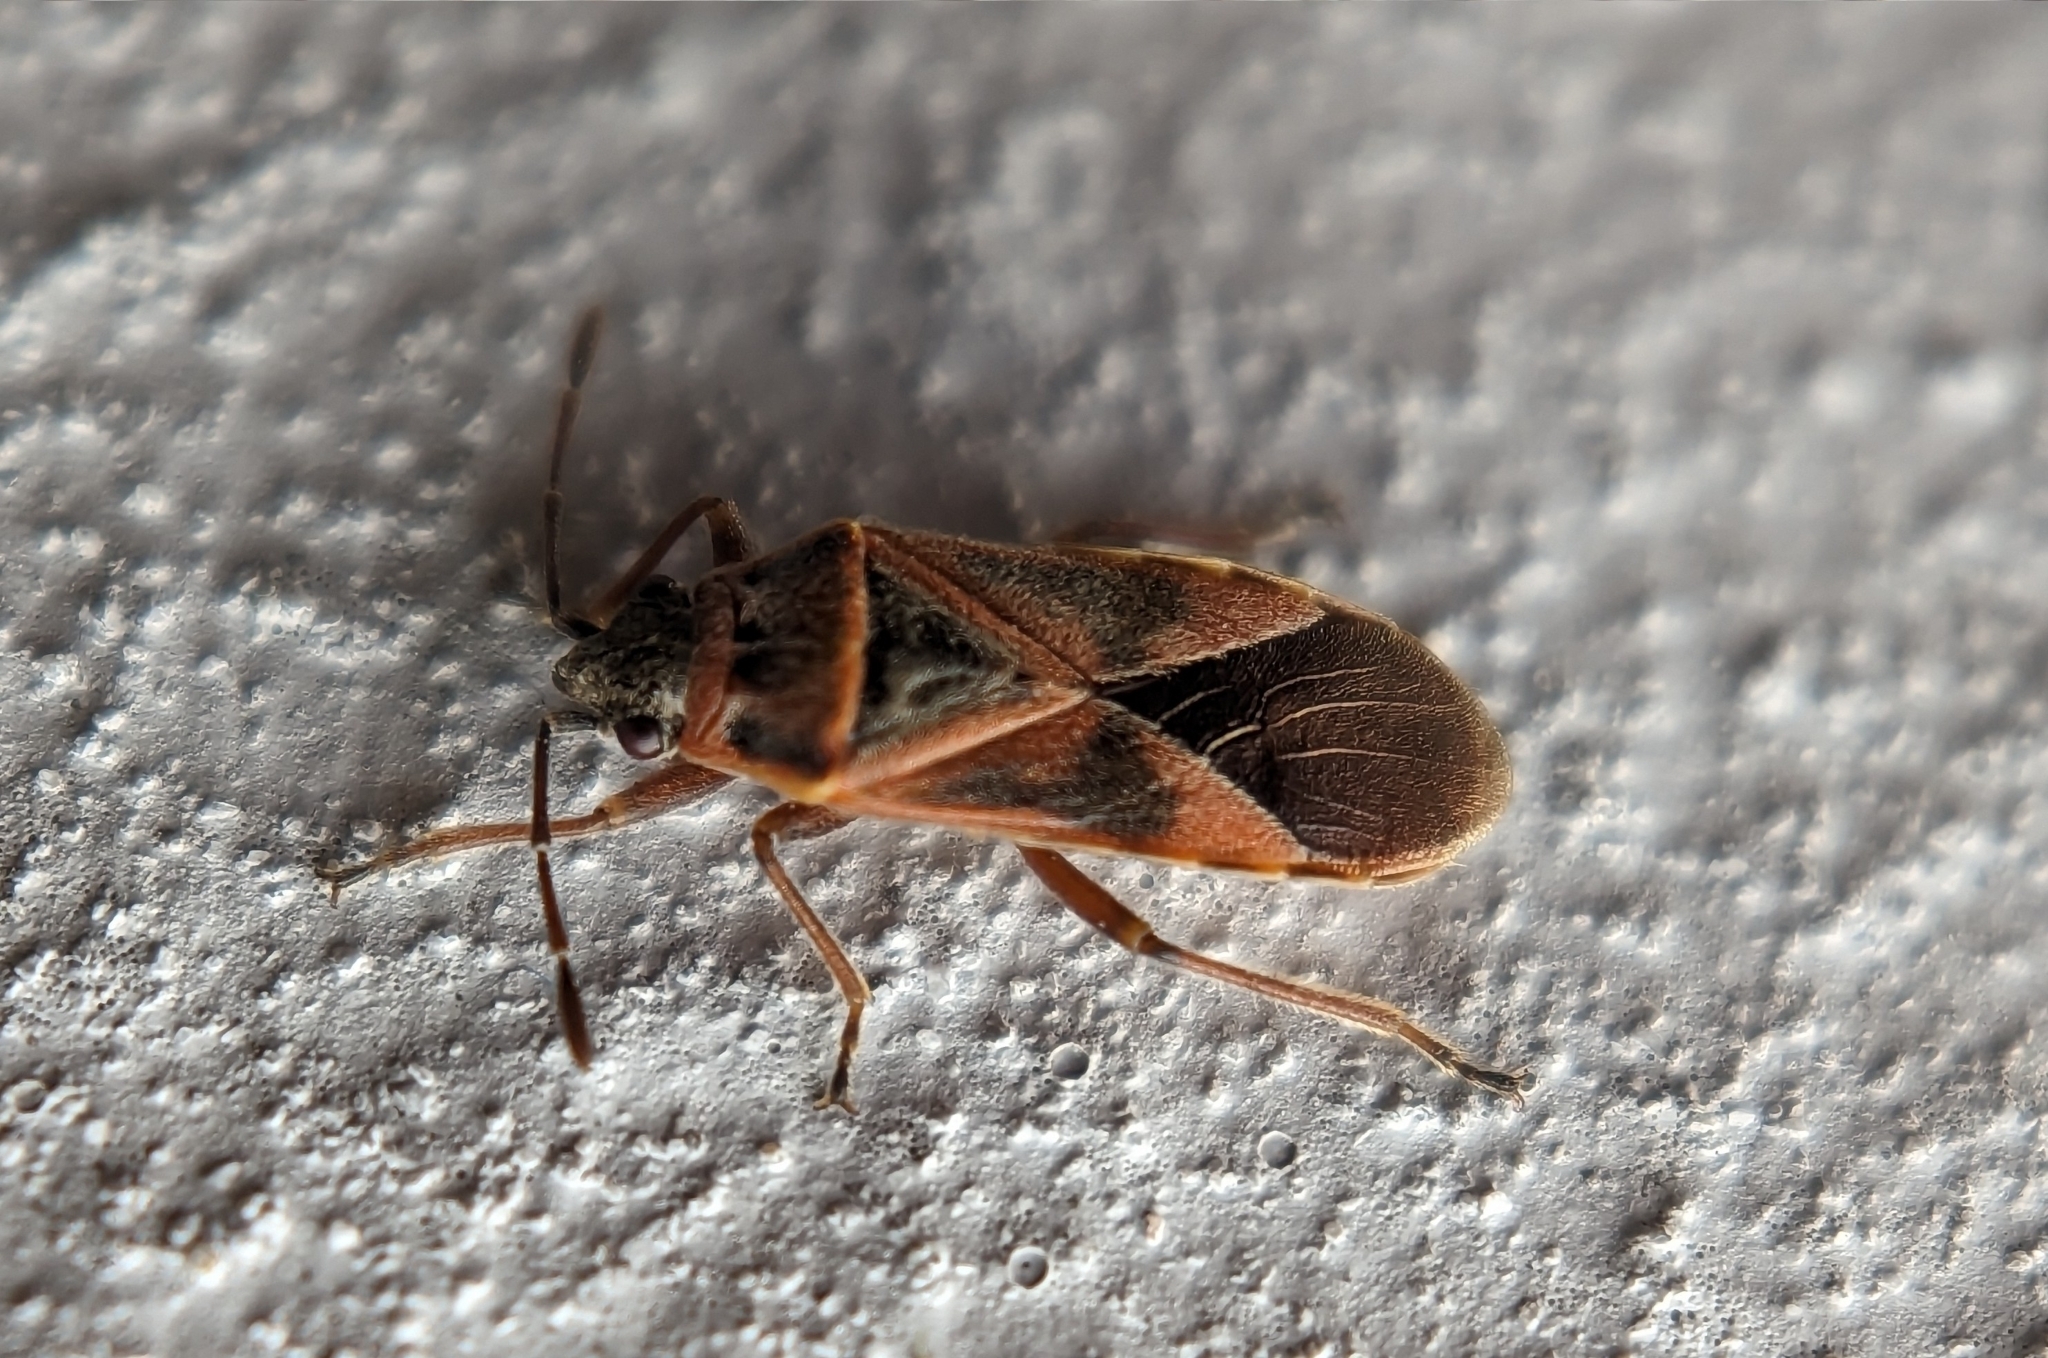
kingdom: Animalia
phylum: Arthropoda
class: Insecta
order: Hemiptera
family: Lygaeidae
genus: Arocatus
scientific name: Arocatus roeselii
